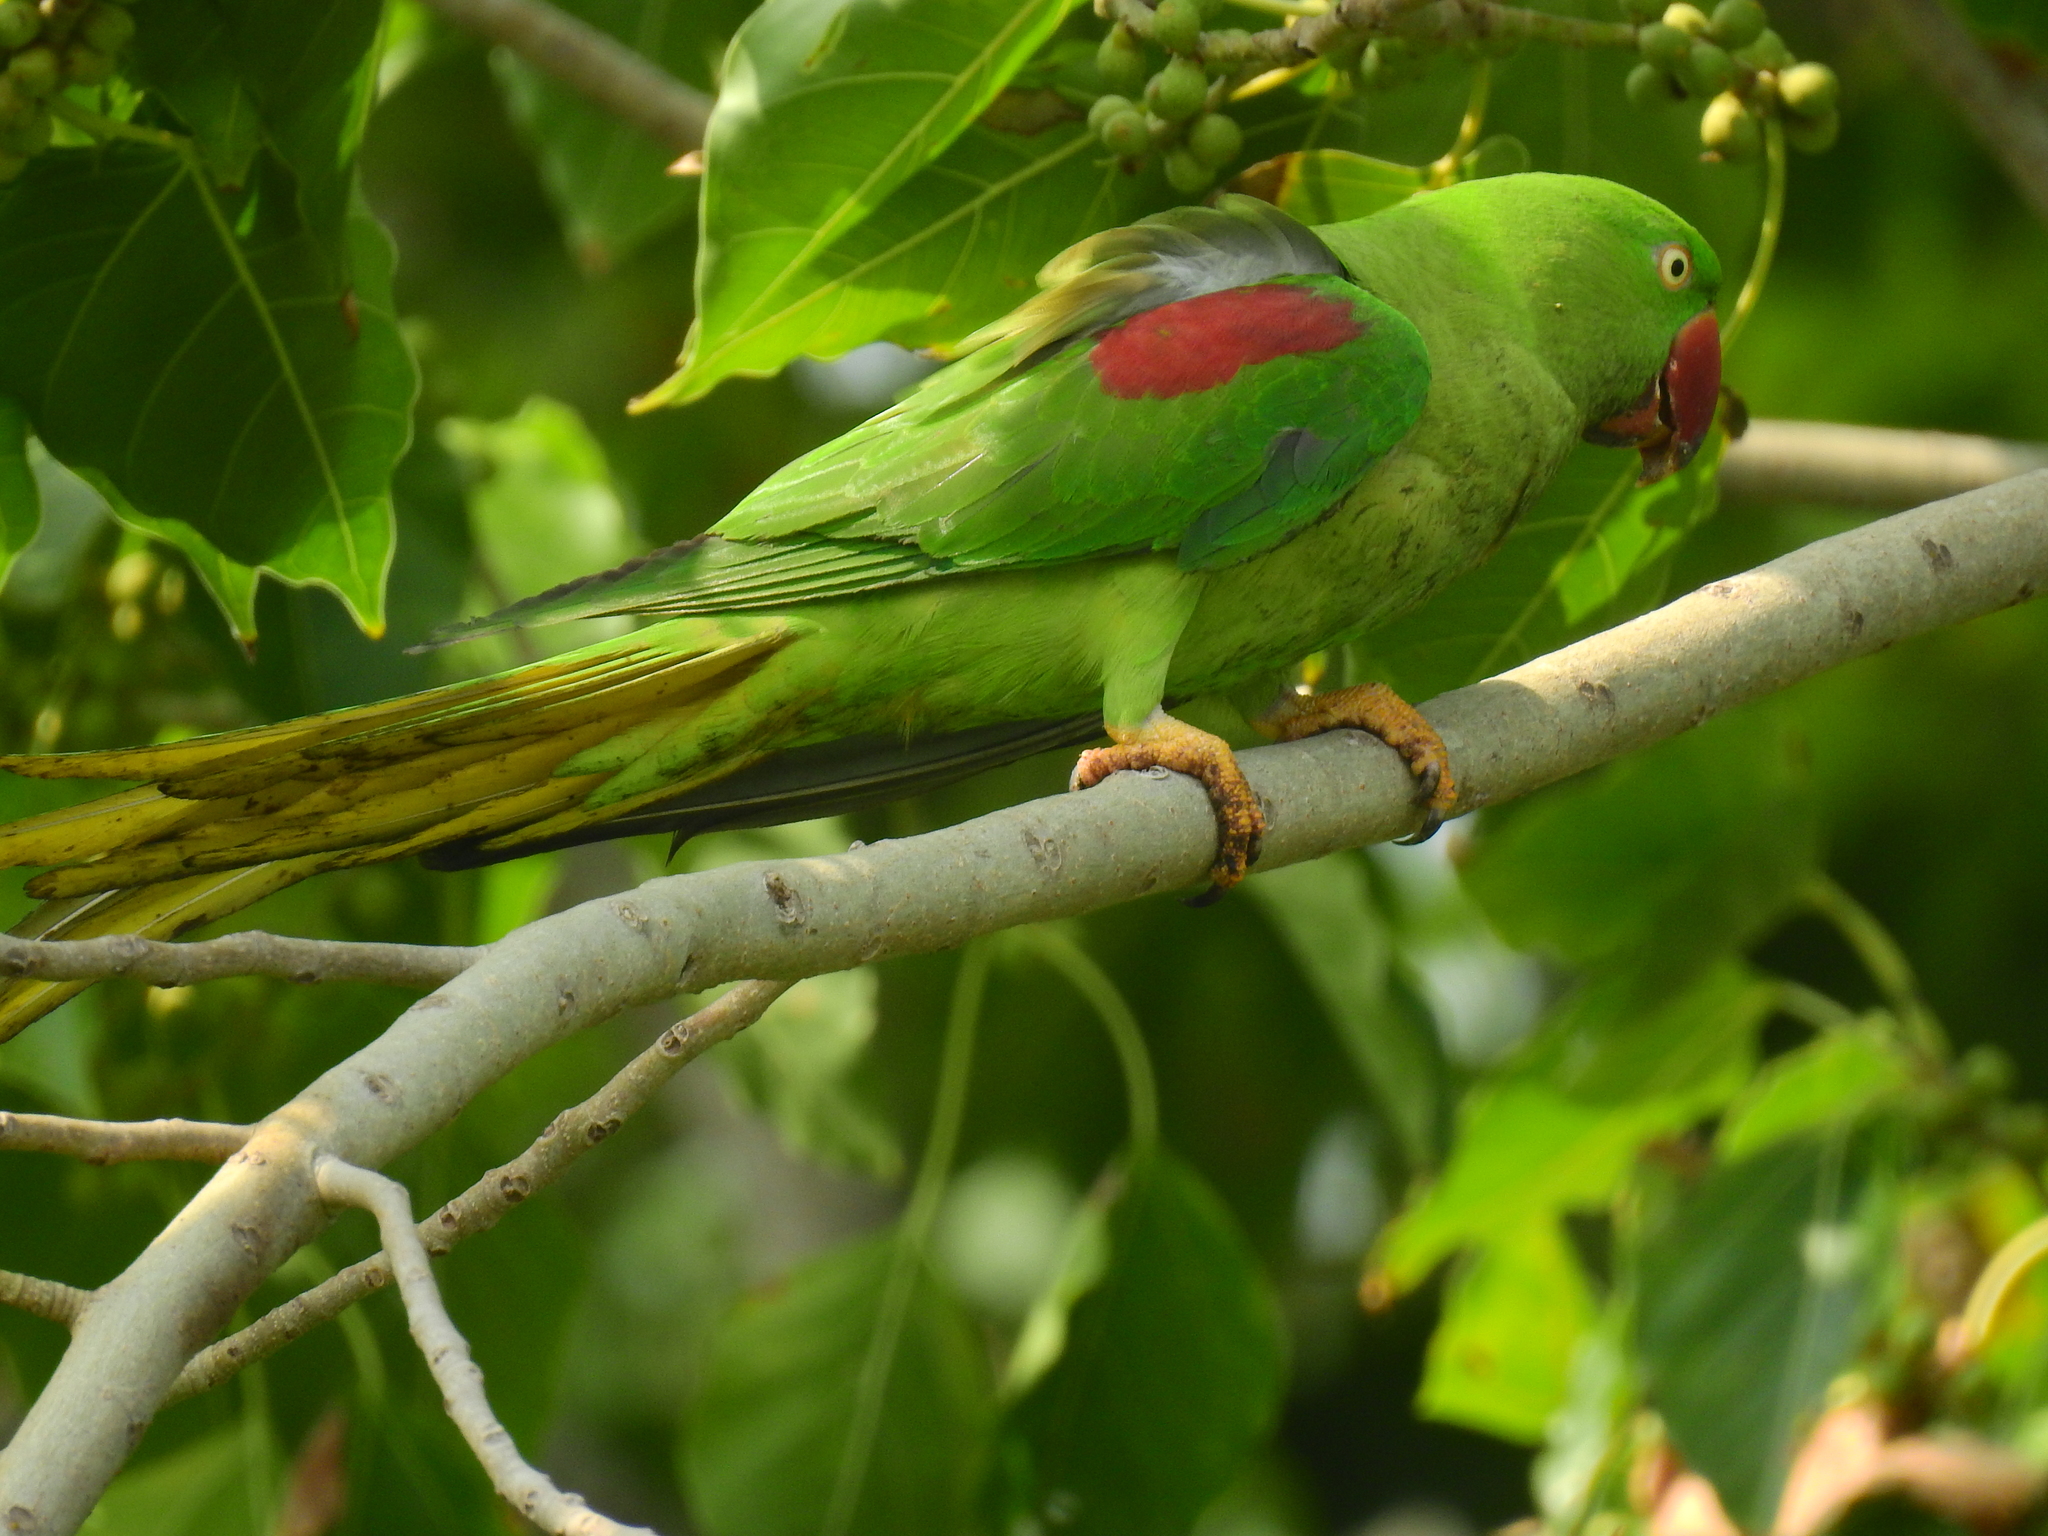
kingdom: Animalia
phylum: Chordata
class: Aves
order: Psittaciformes
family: Psittacidae
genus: Psittacula
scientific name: Psittacula eupatria
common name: Alexandrine parakeet
